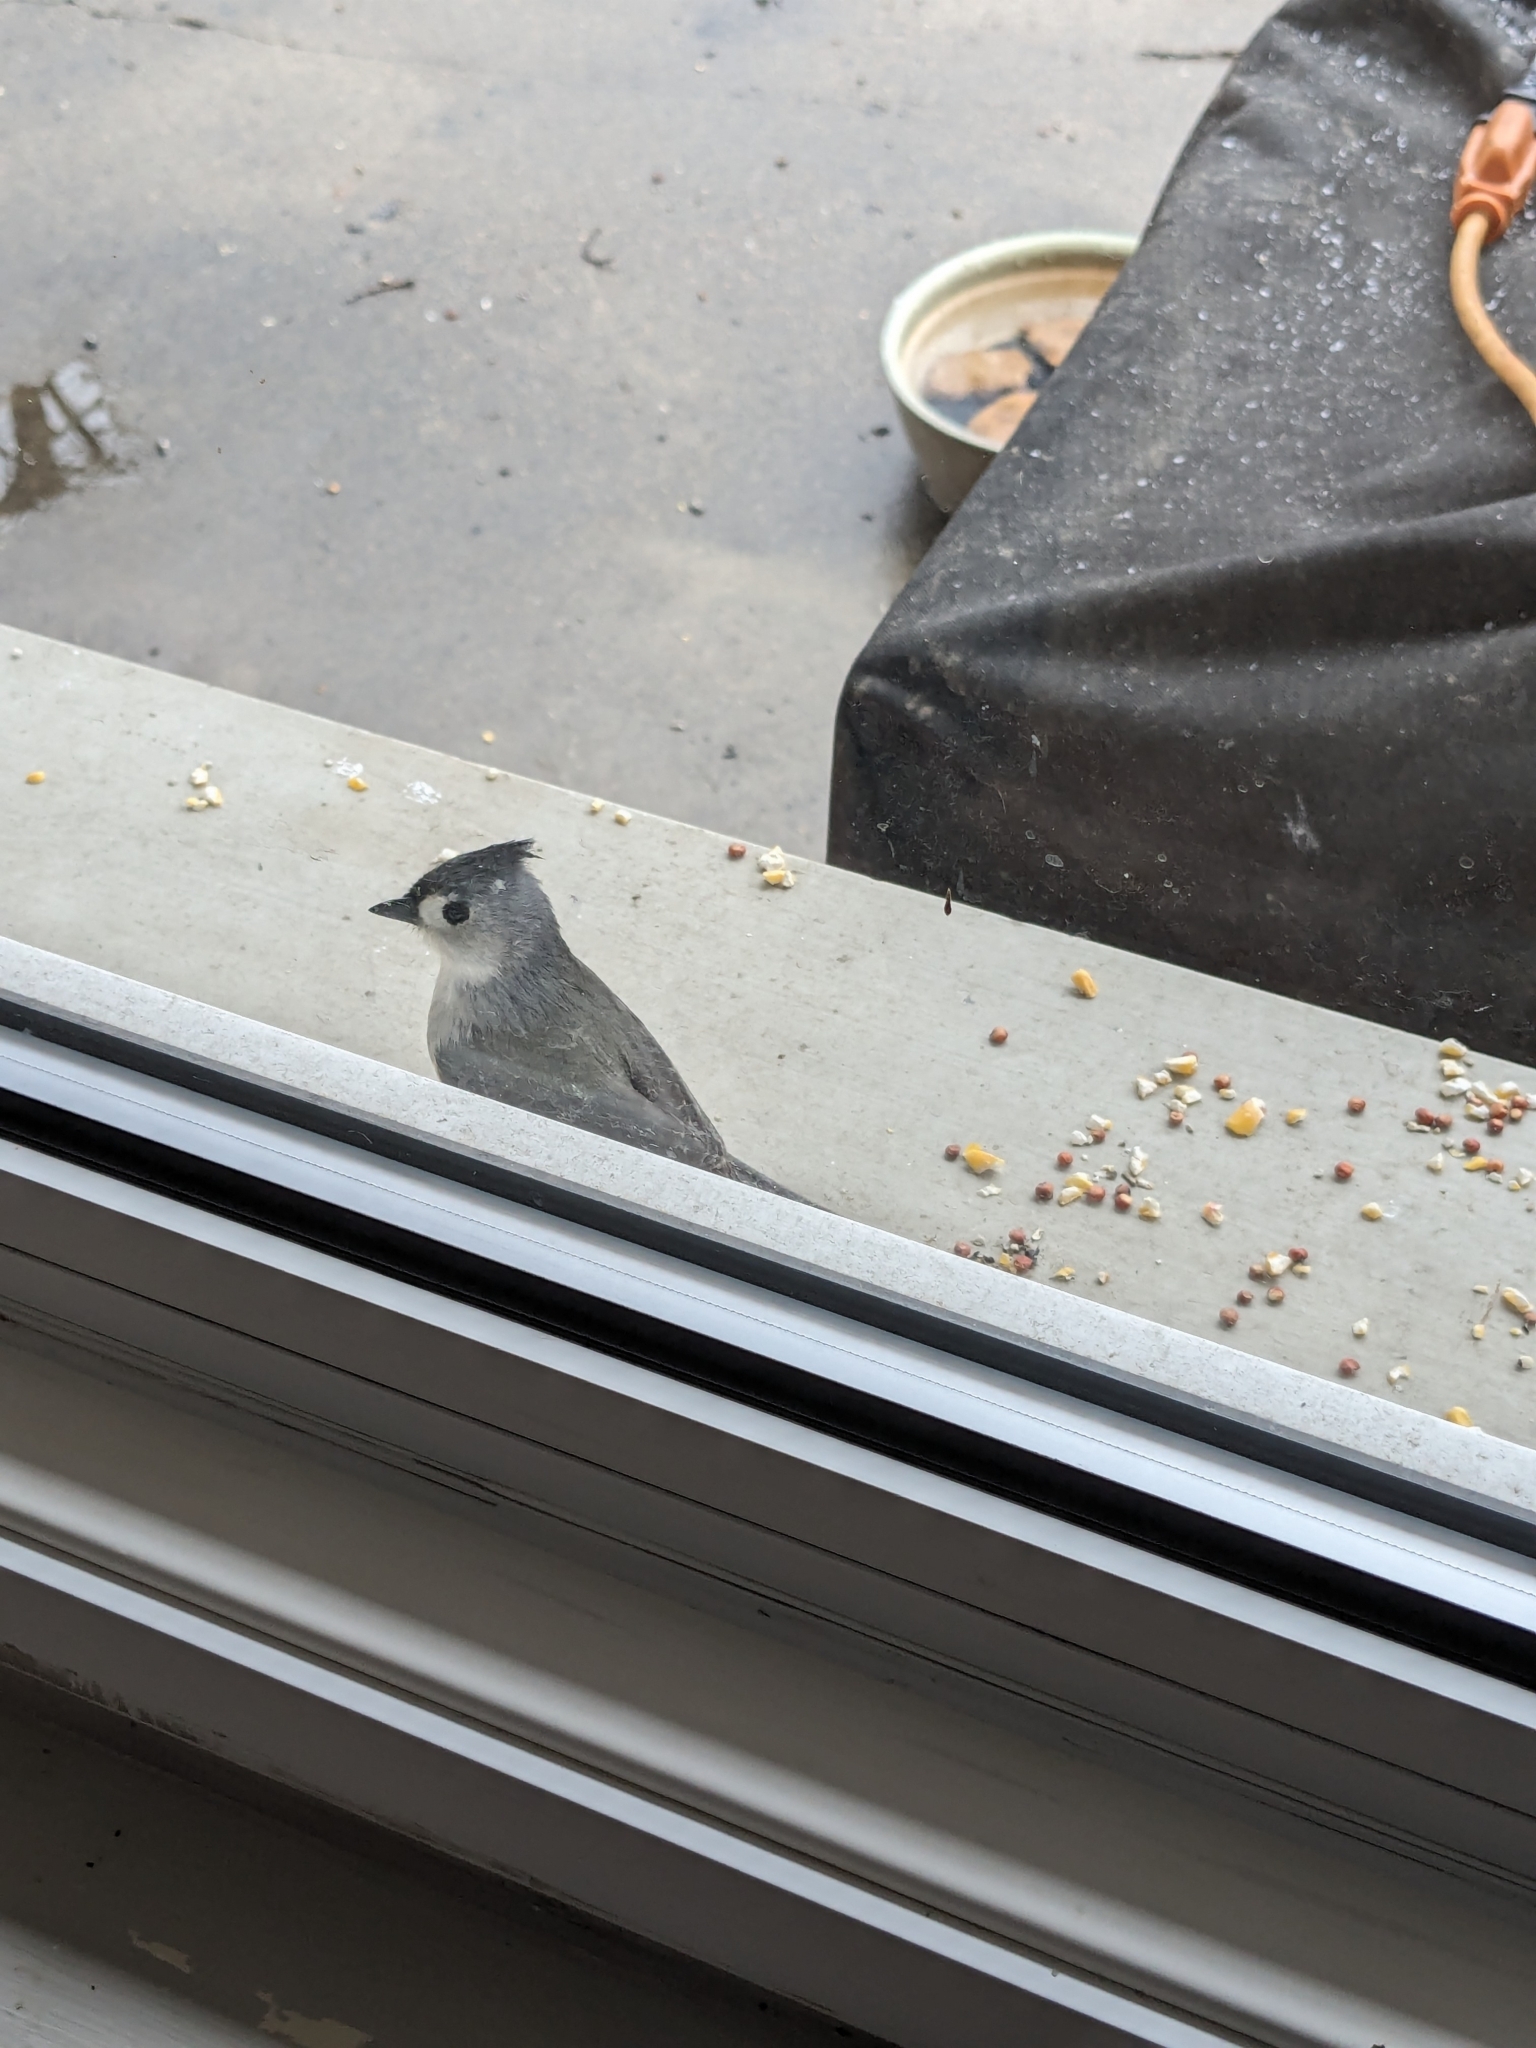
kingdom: Animalia
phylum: Chordata
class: Aves
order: Passeriformes
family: Paridae
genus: Baeolophus
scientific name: Baeolophus bicolor
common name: Tufted titmouse
